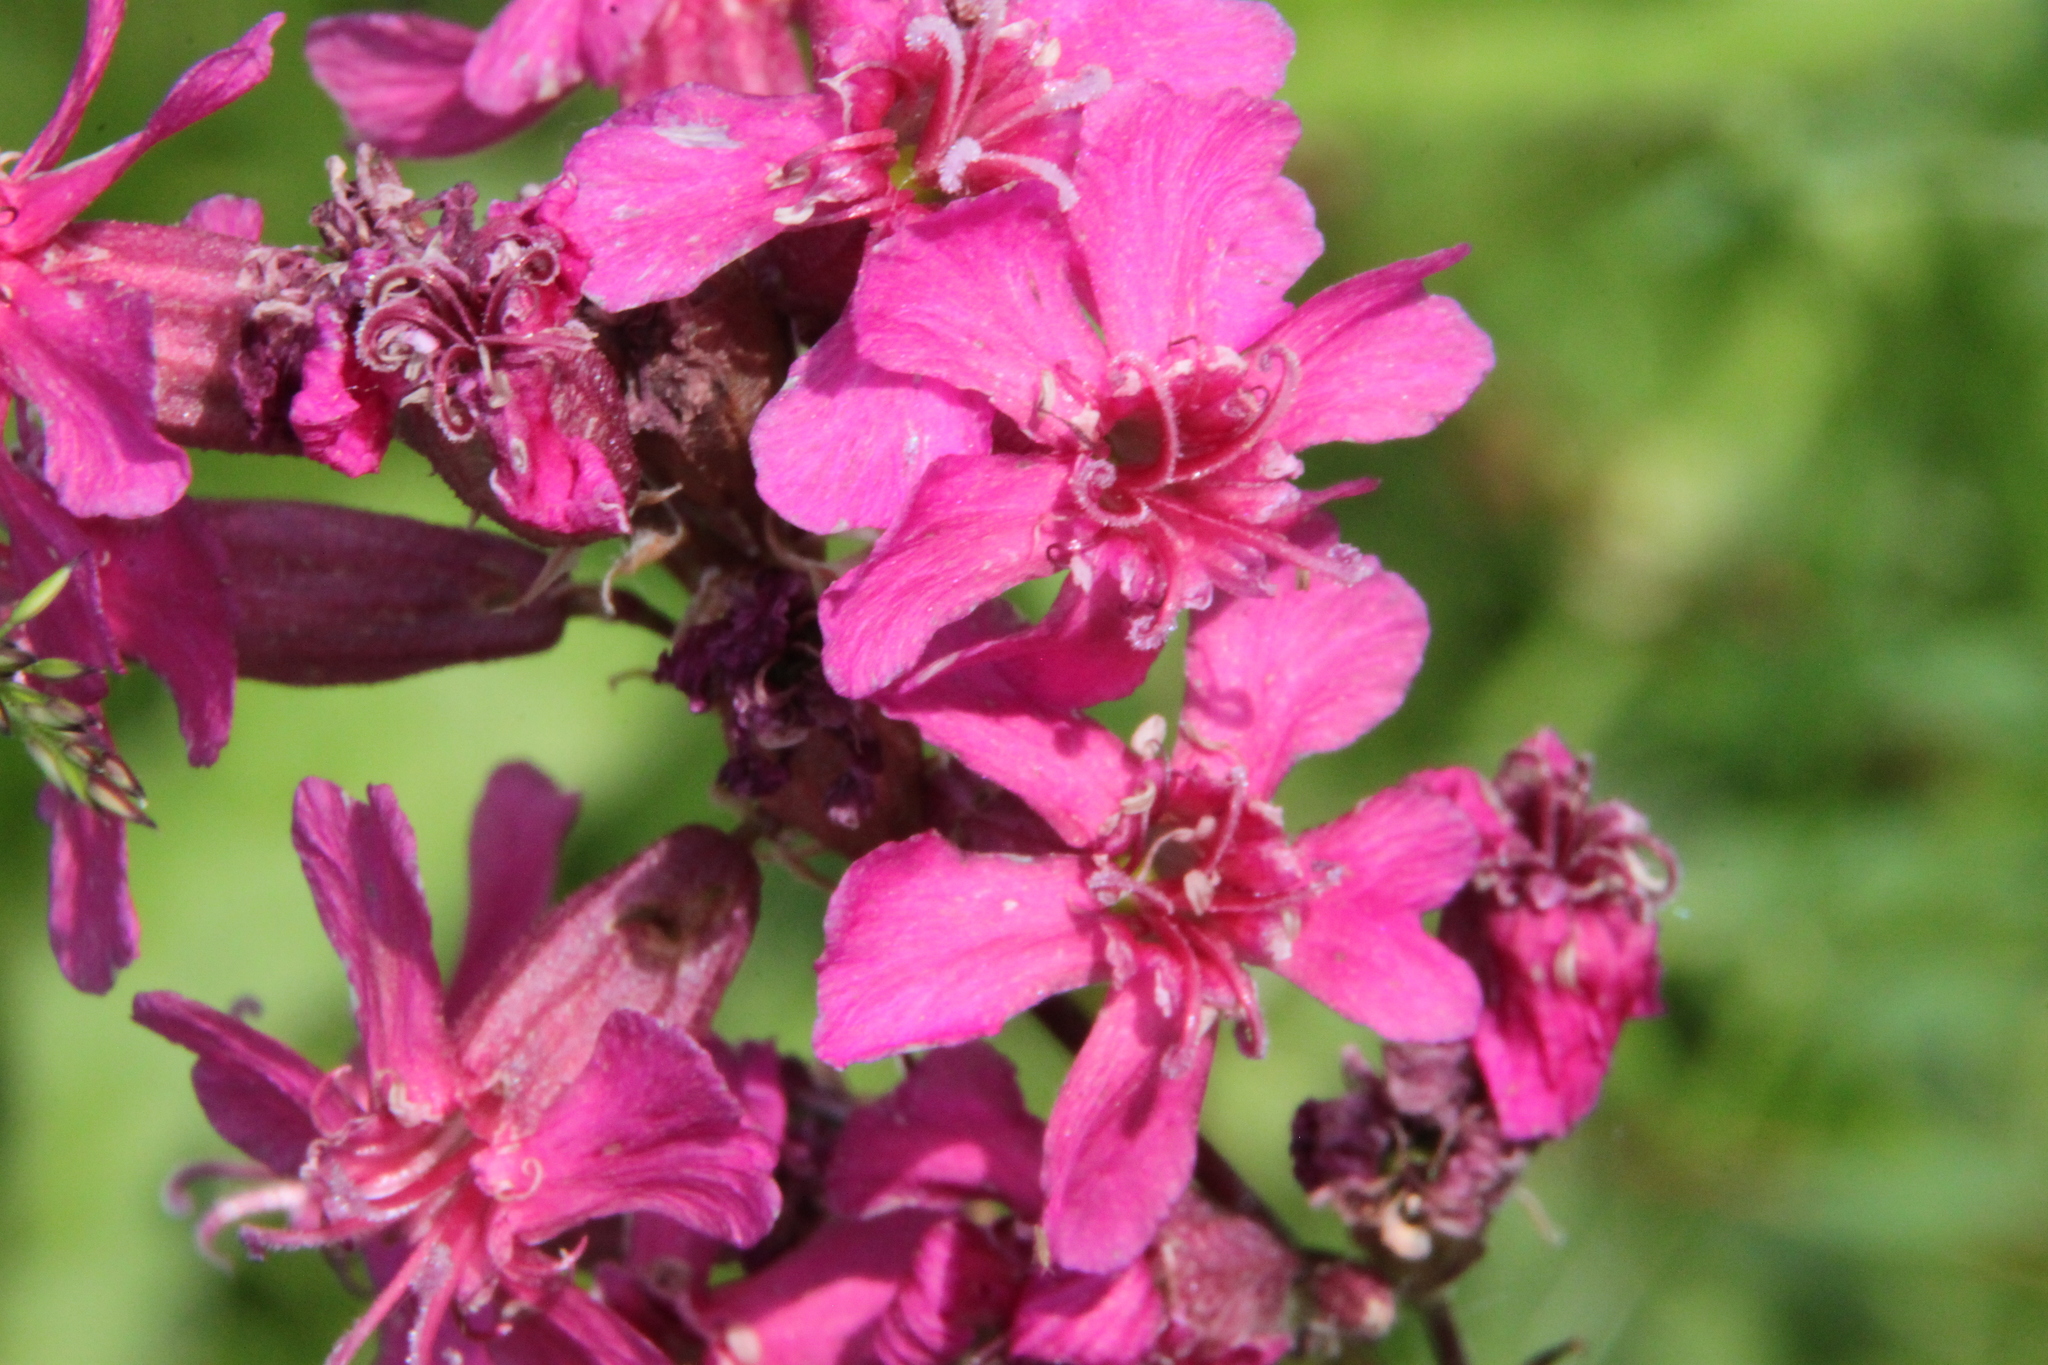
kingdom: Plantae
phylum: Tracheophyta
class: Magnoliopsida
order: Caryophyllales
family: Caryophyllaceae
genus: Viscaria
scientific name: Viscaria vulgaris
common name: Clammy campion
